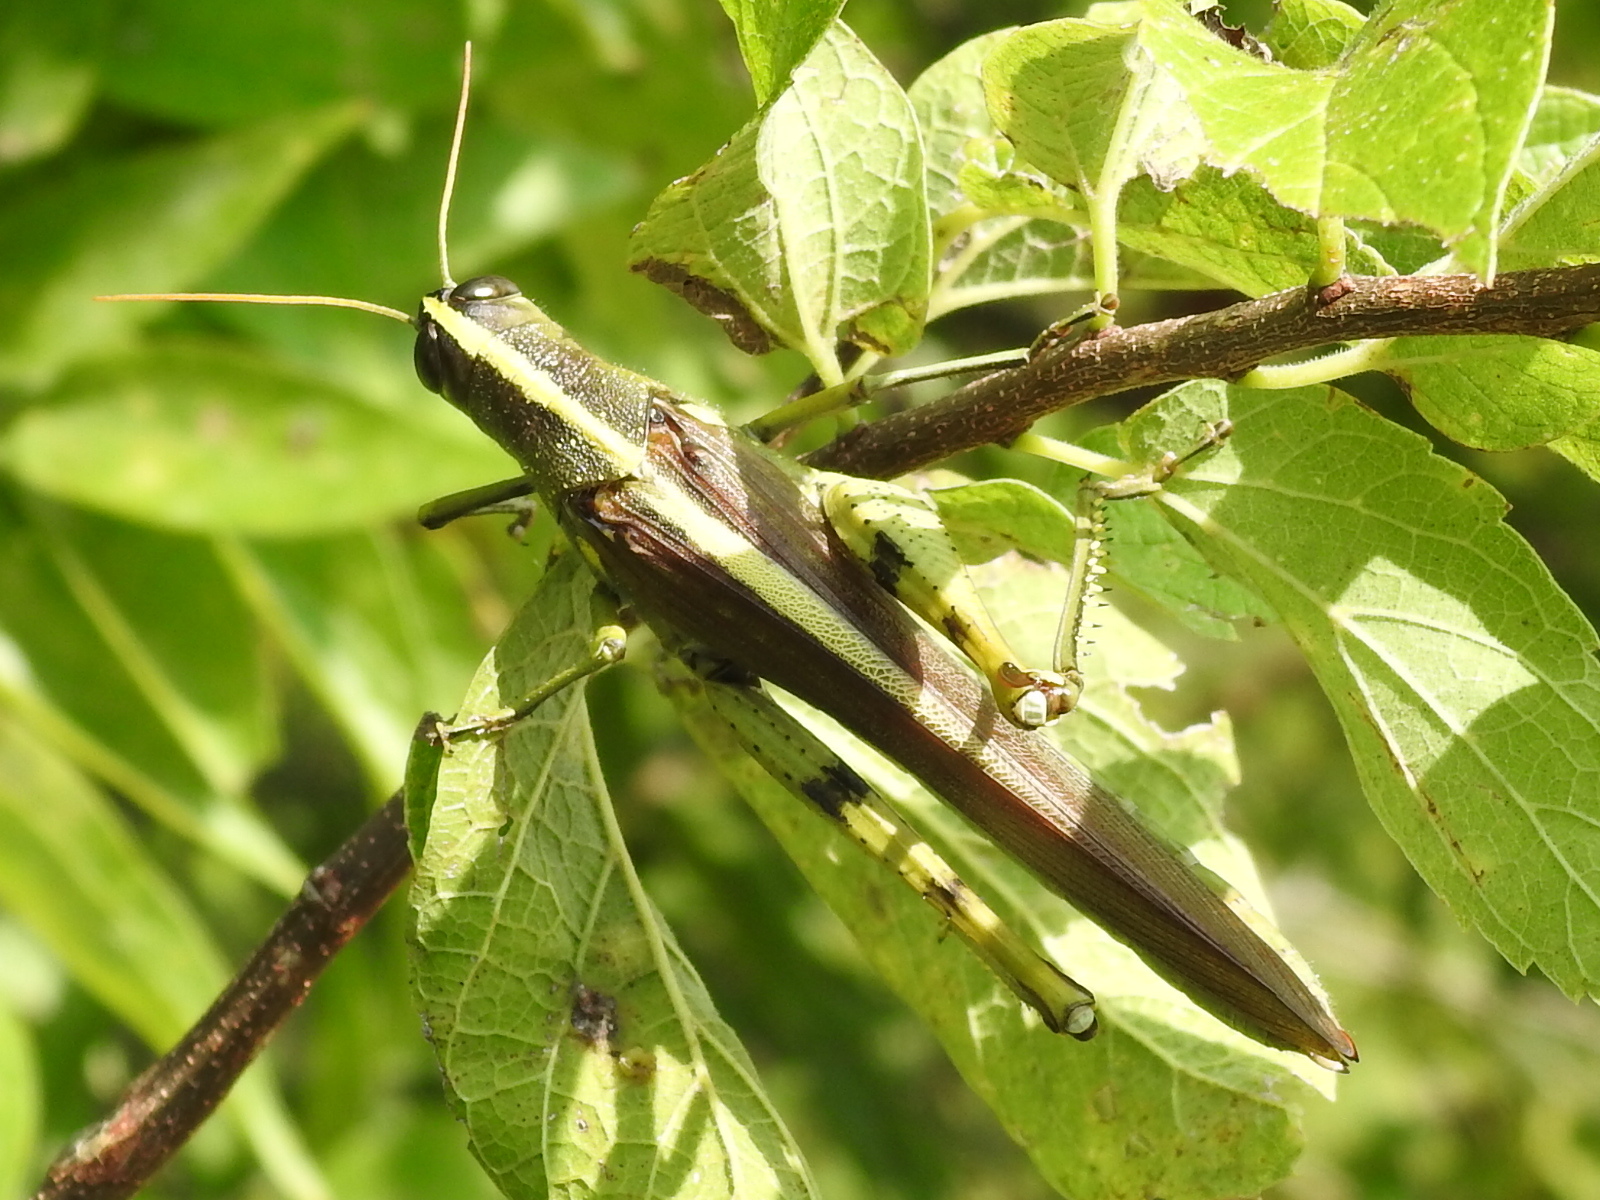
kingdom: Animalia
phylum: Arthropoda
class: Insecta
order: Orthoptera
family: Acrididae
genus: Schistocerca
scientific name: Schistocerca obscura
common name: Obscure bird grasshopper
